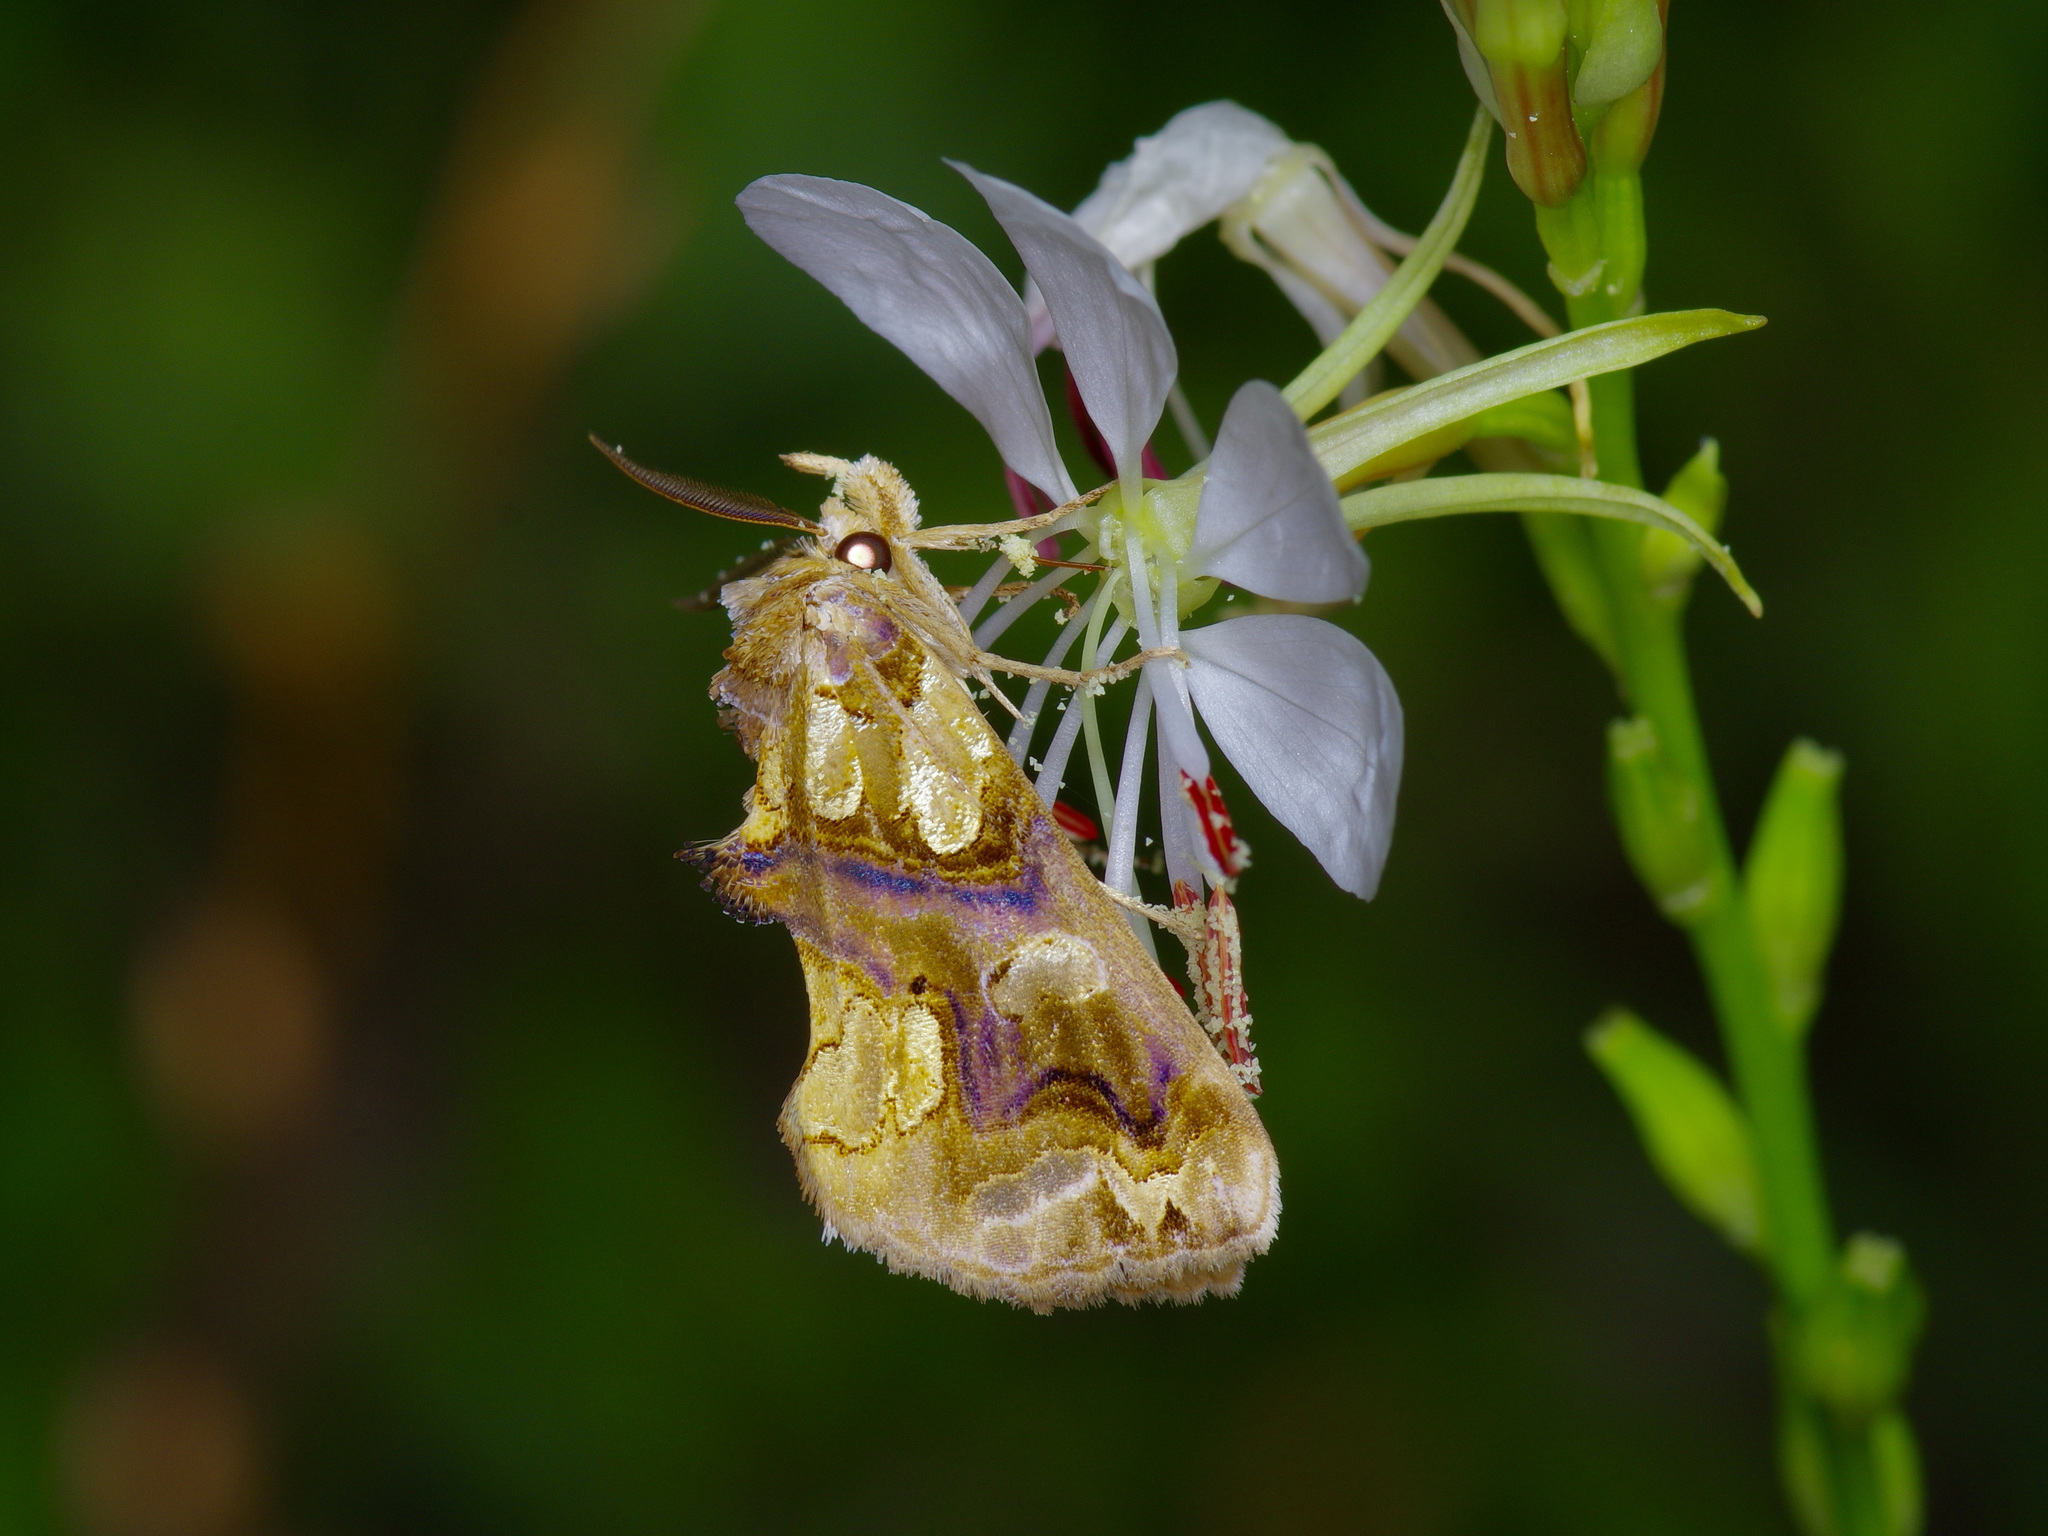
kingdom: Animalia
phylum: Arthropoda
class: Insecta
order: Lepidoptera
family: Erebidae
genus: Plusiodonta
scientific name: Plusiodonta compressipalpis
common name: Moonseed moth
